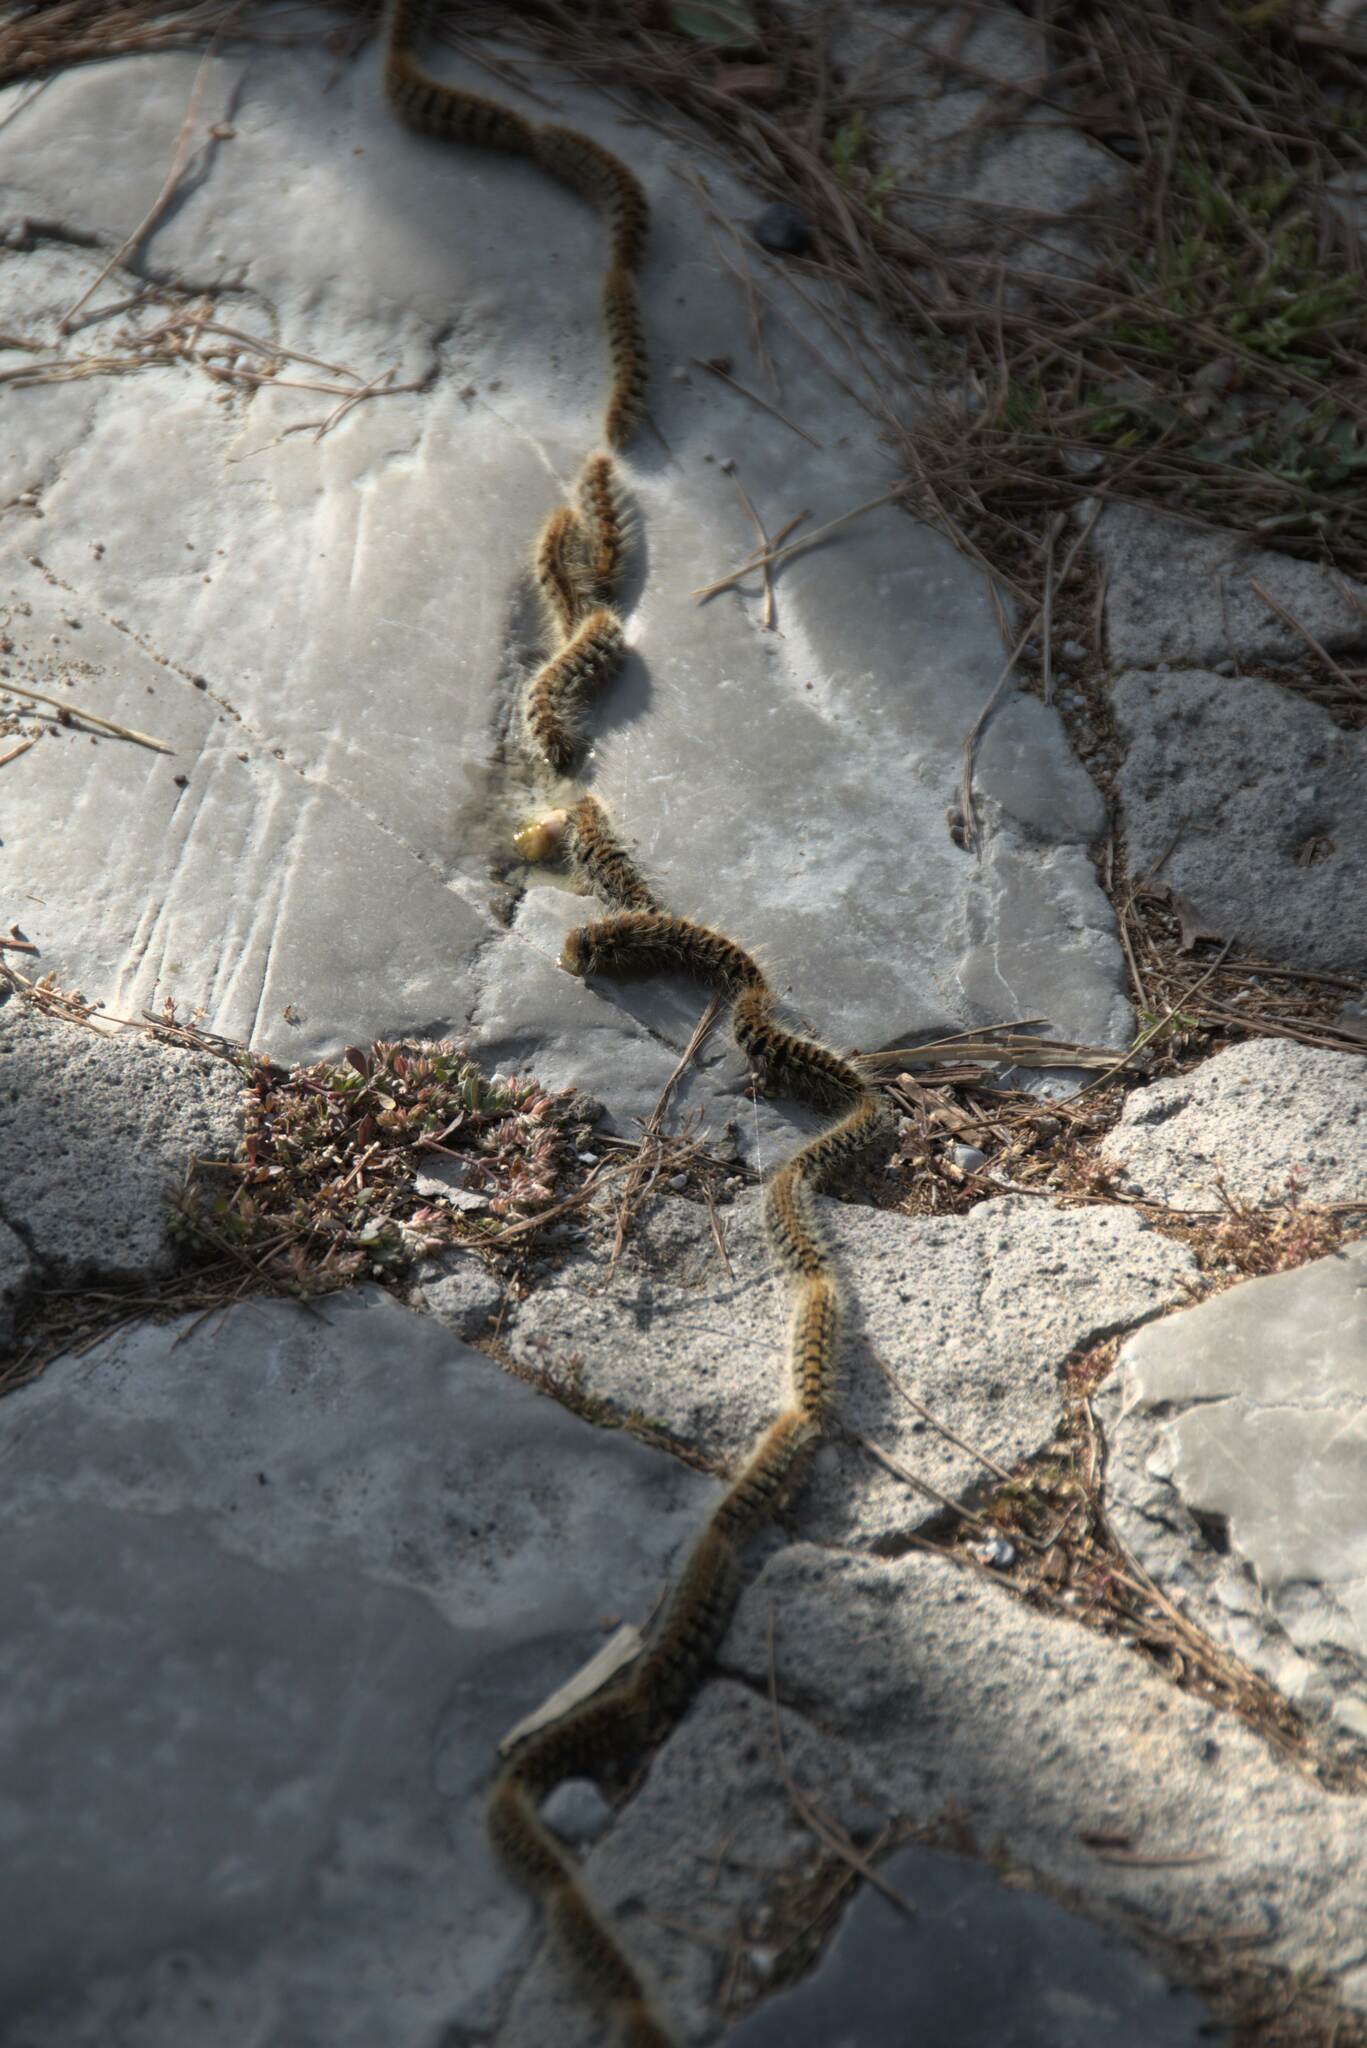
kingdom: Animalia
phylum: Arthropoda
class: Insecta
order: Lepidoptera
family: Notodontidae
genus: Thaumetopoea
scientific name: Thaumetopoea
